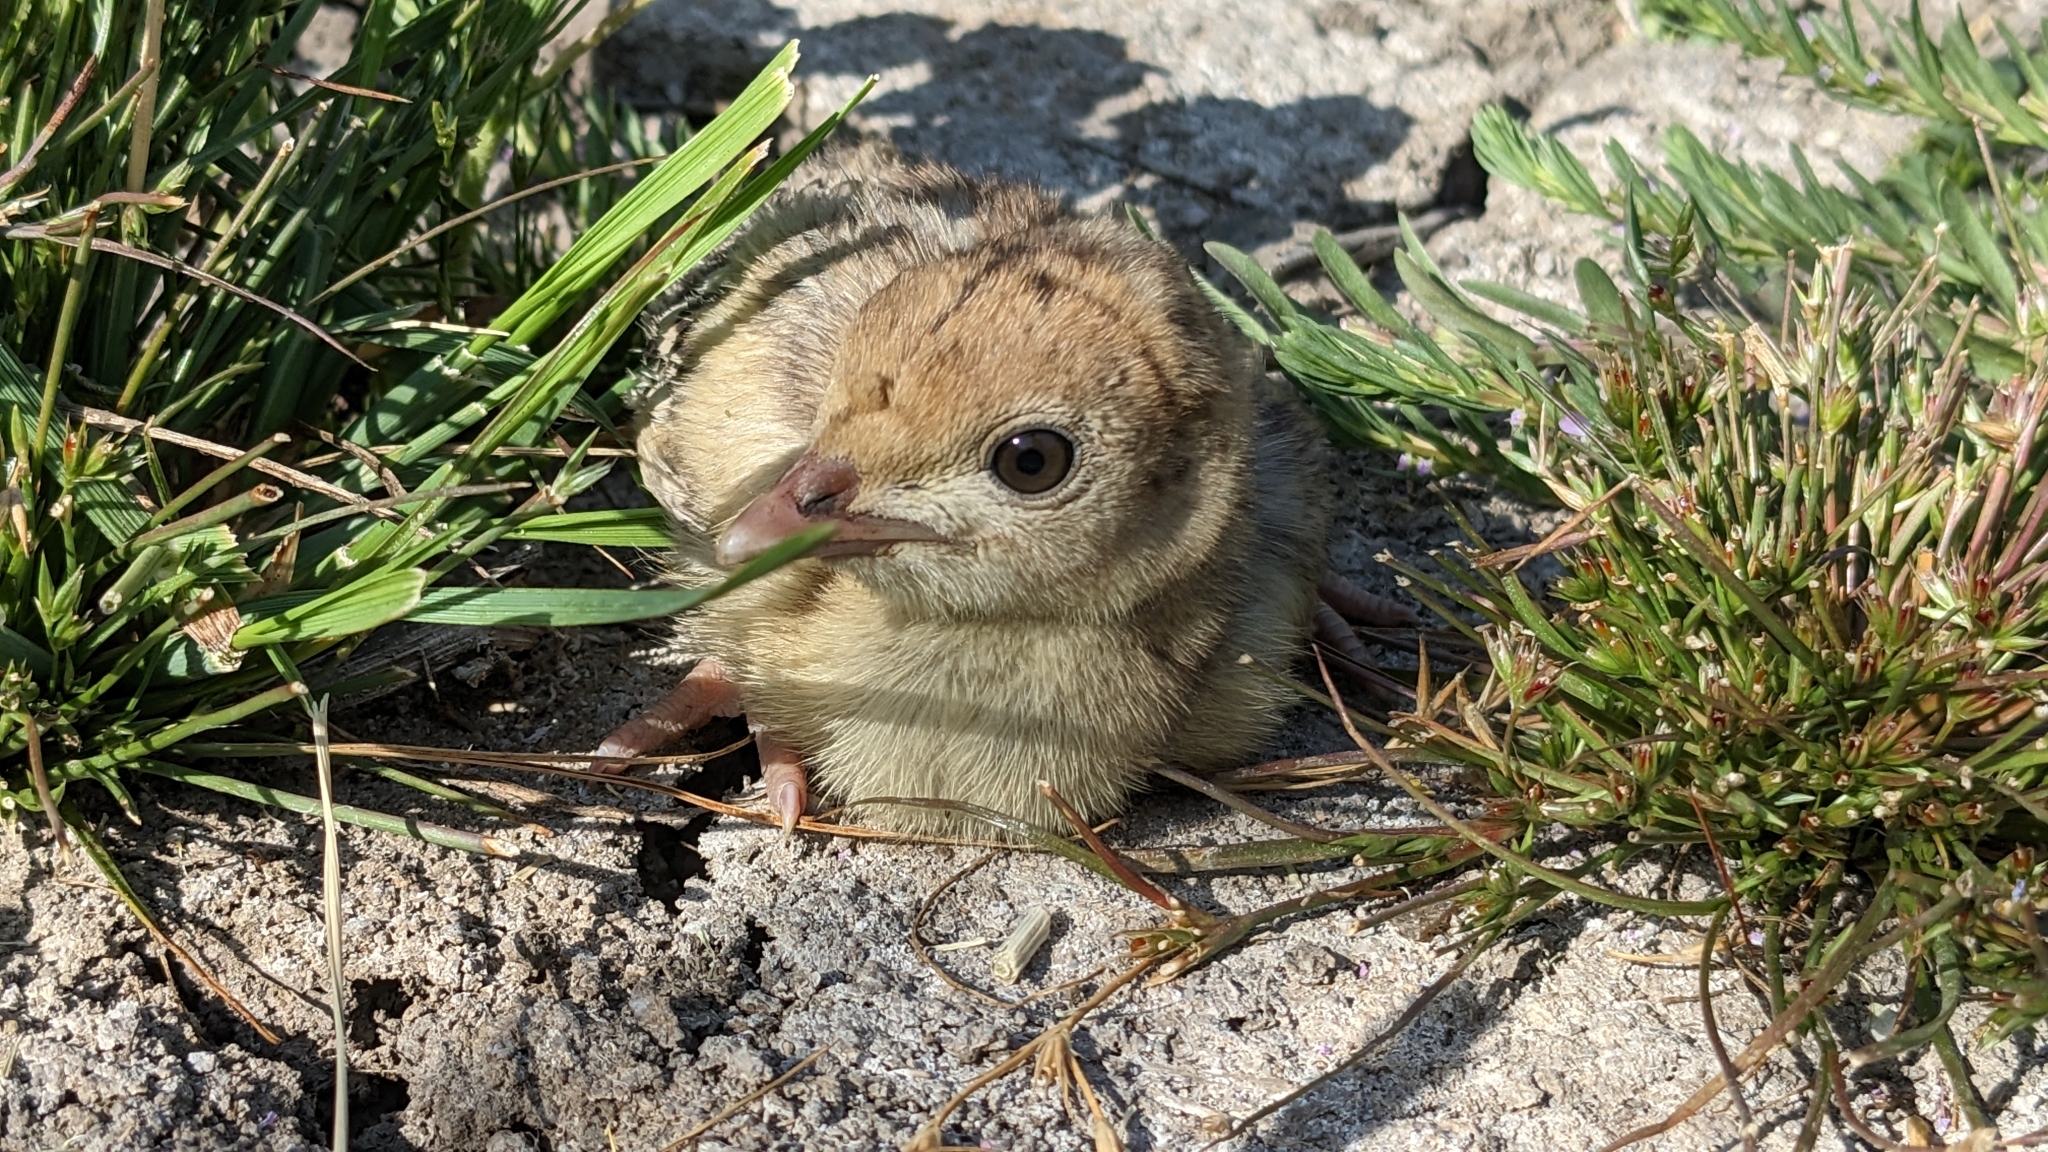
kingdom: Animalia
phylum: Chordata
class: Aves
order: Galliformes
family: Phasianidae
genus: Meleagris
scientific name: Meleagris gallopavo
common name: Wild turkey
